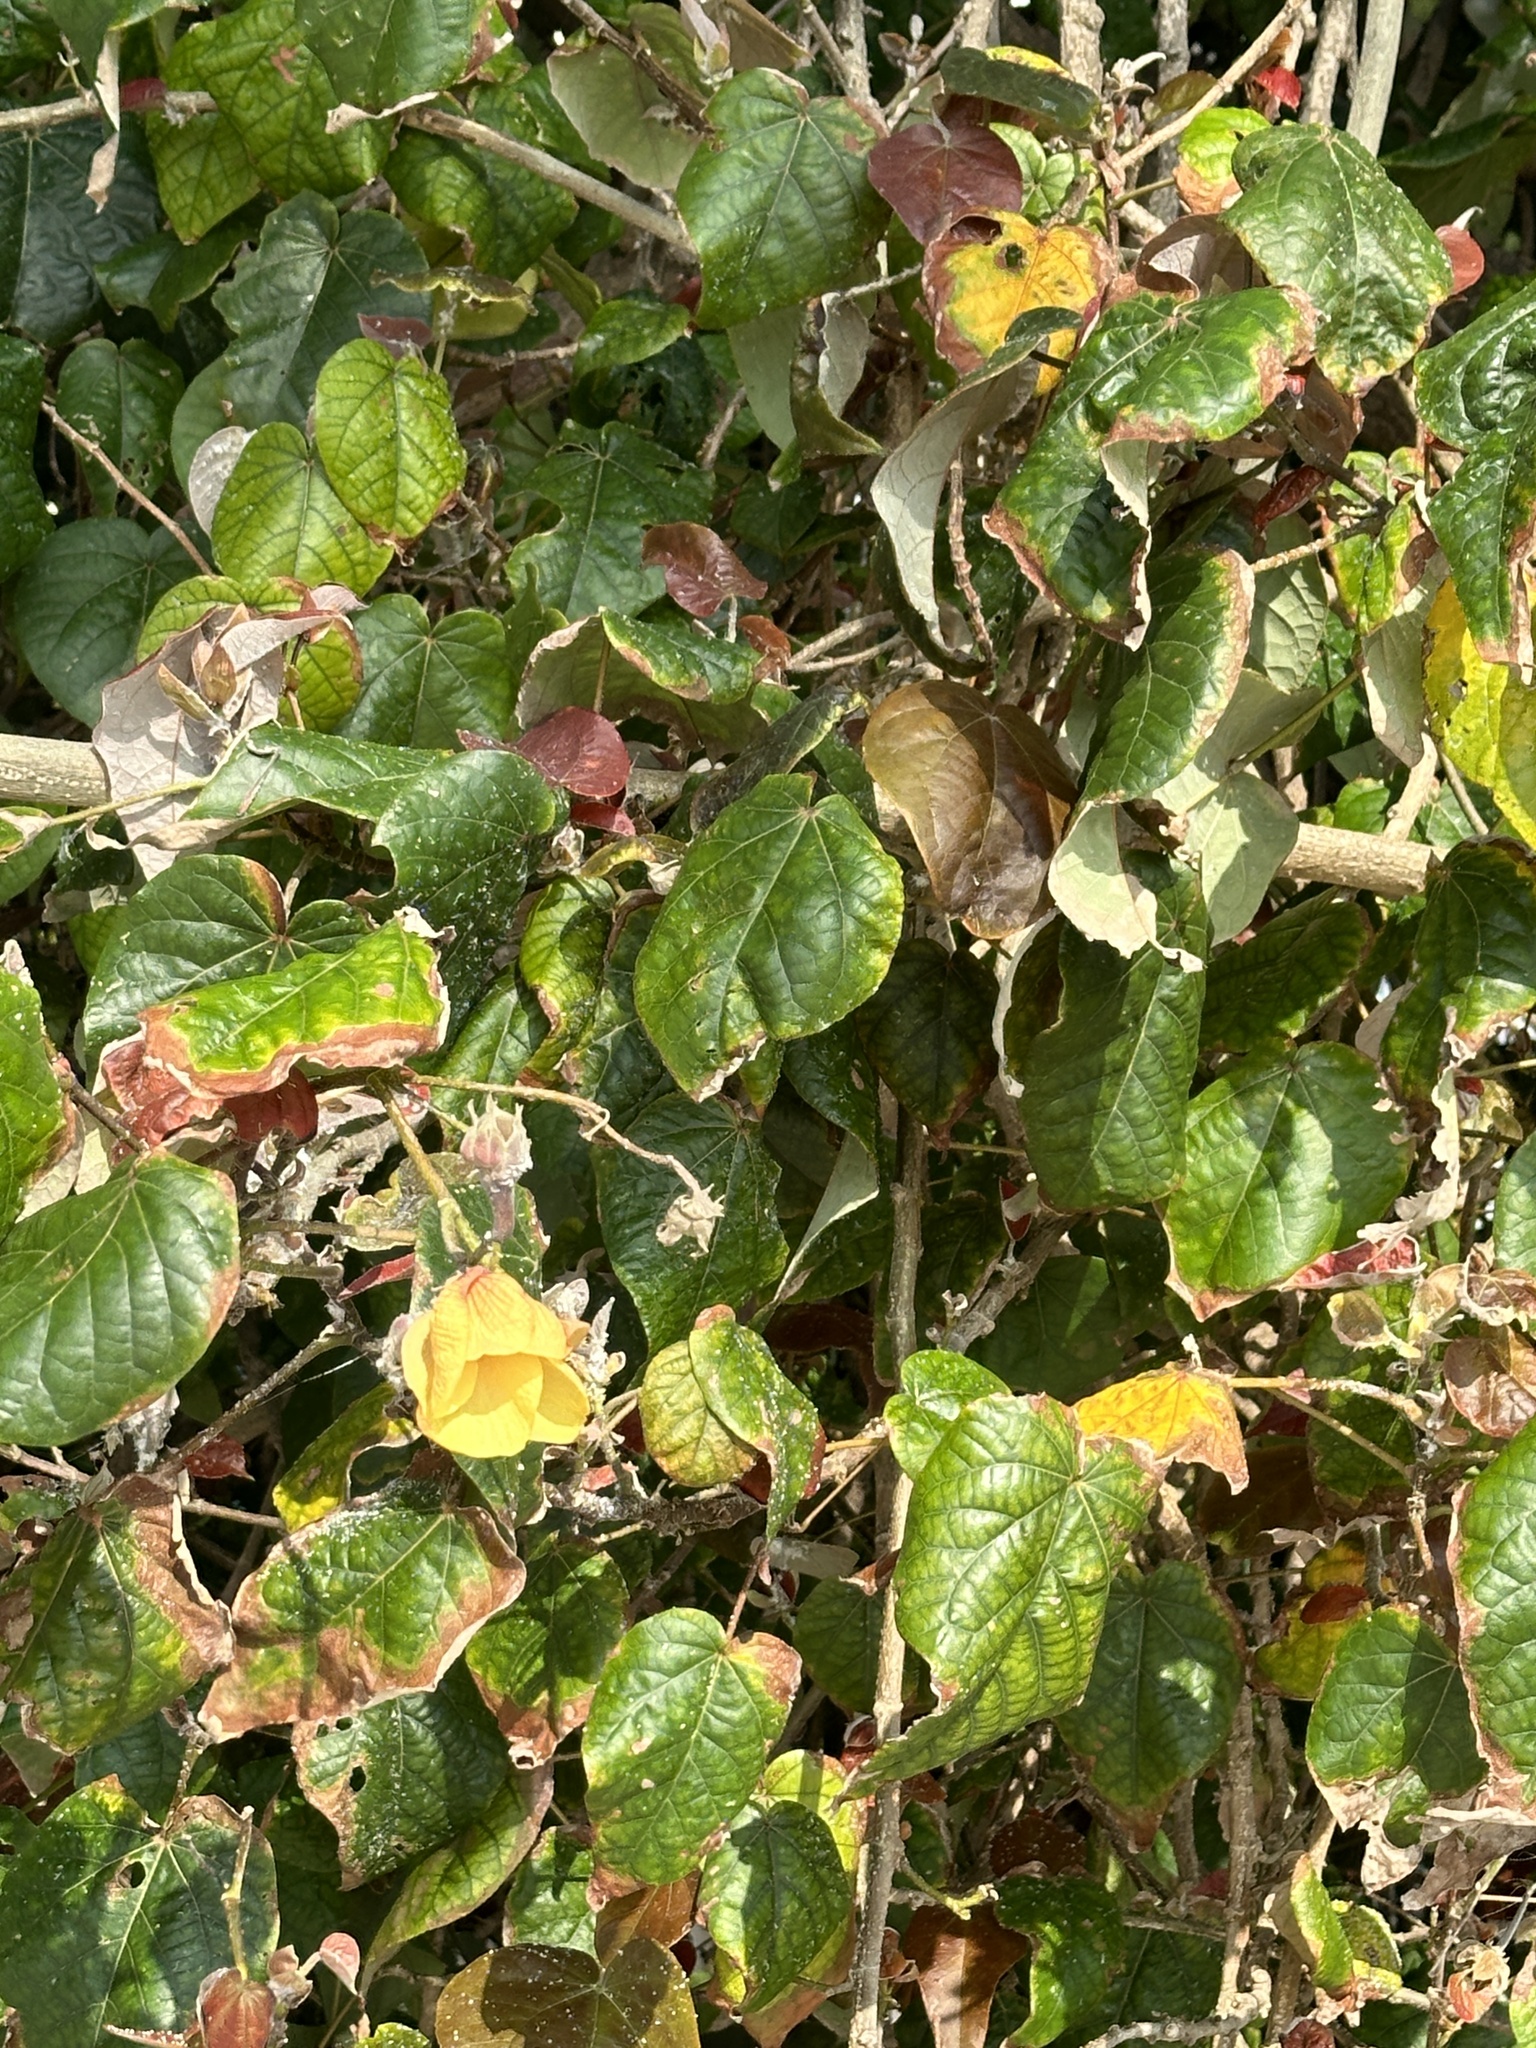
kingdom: Plantae
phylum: Tracheophyta
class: Magnoliopsida
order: Malvales
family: Malvaceae
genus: Talipariti
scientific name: Talipariti tiliaceum
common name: Sea hibiscus
